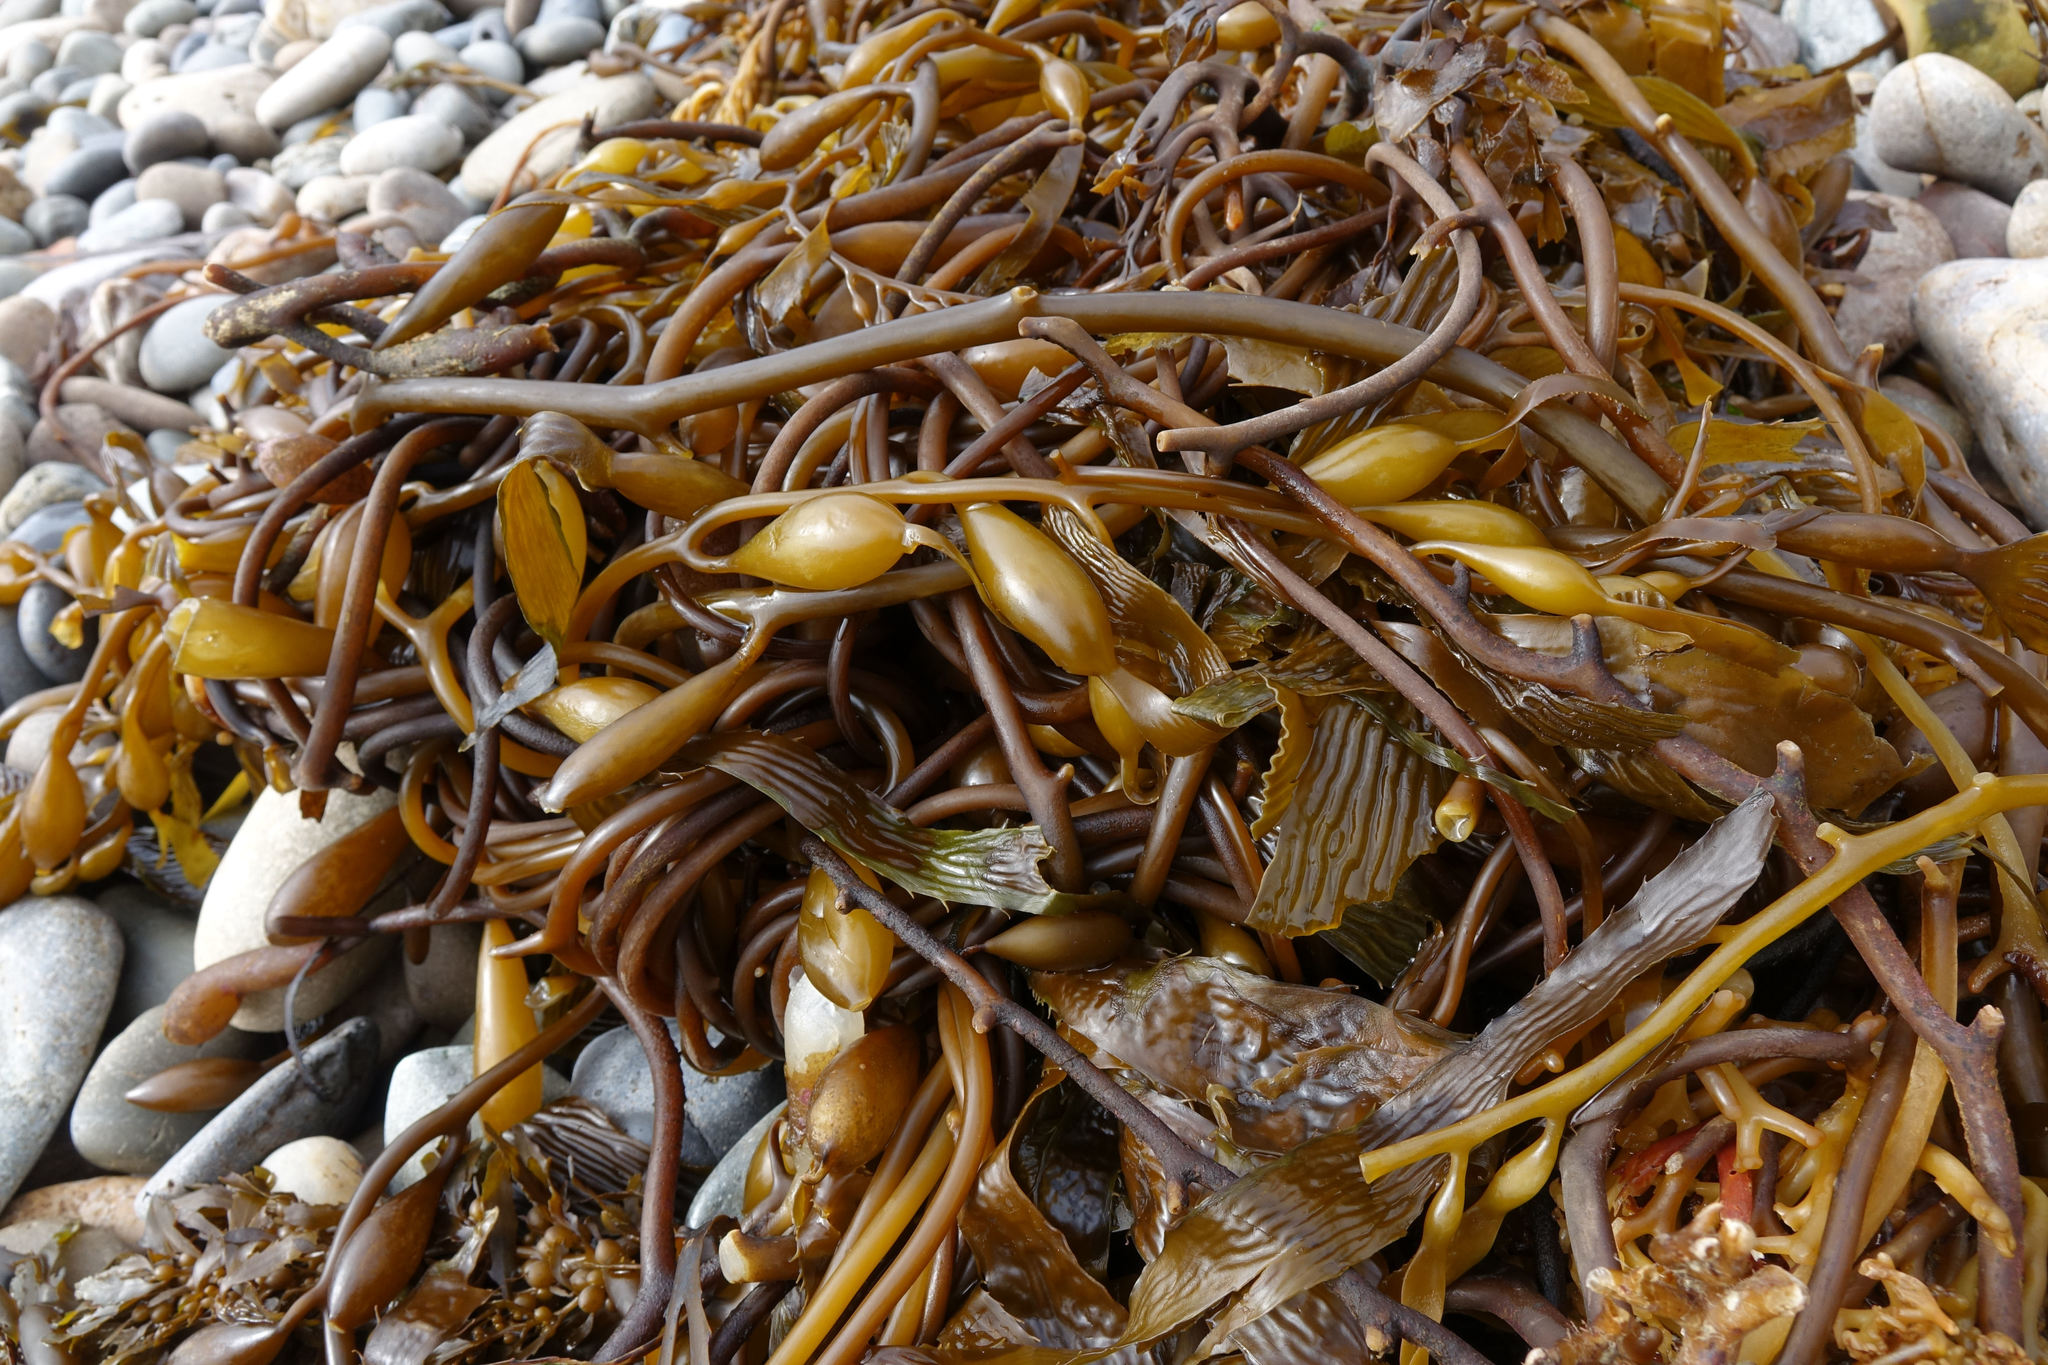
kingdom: Chromista
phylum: Ochrophyta
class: Phaeophyceae
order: Laminariales
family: Laminariaceae
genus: Macrocystis
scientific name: Macrocystis pyrifera
